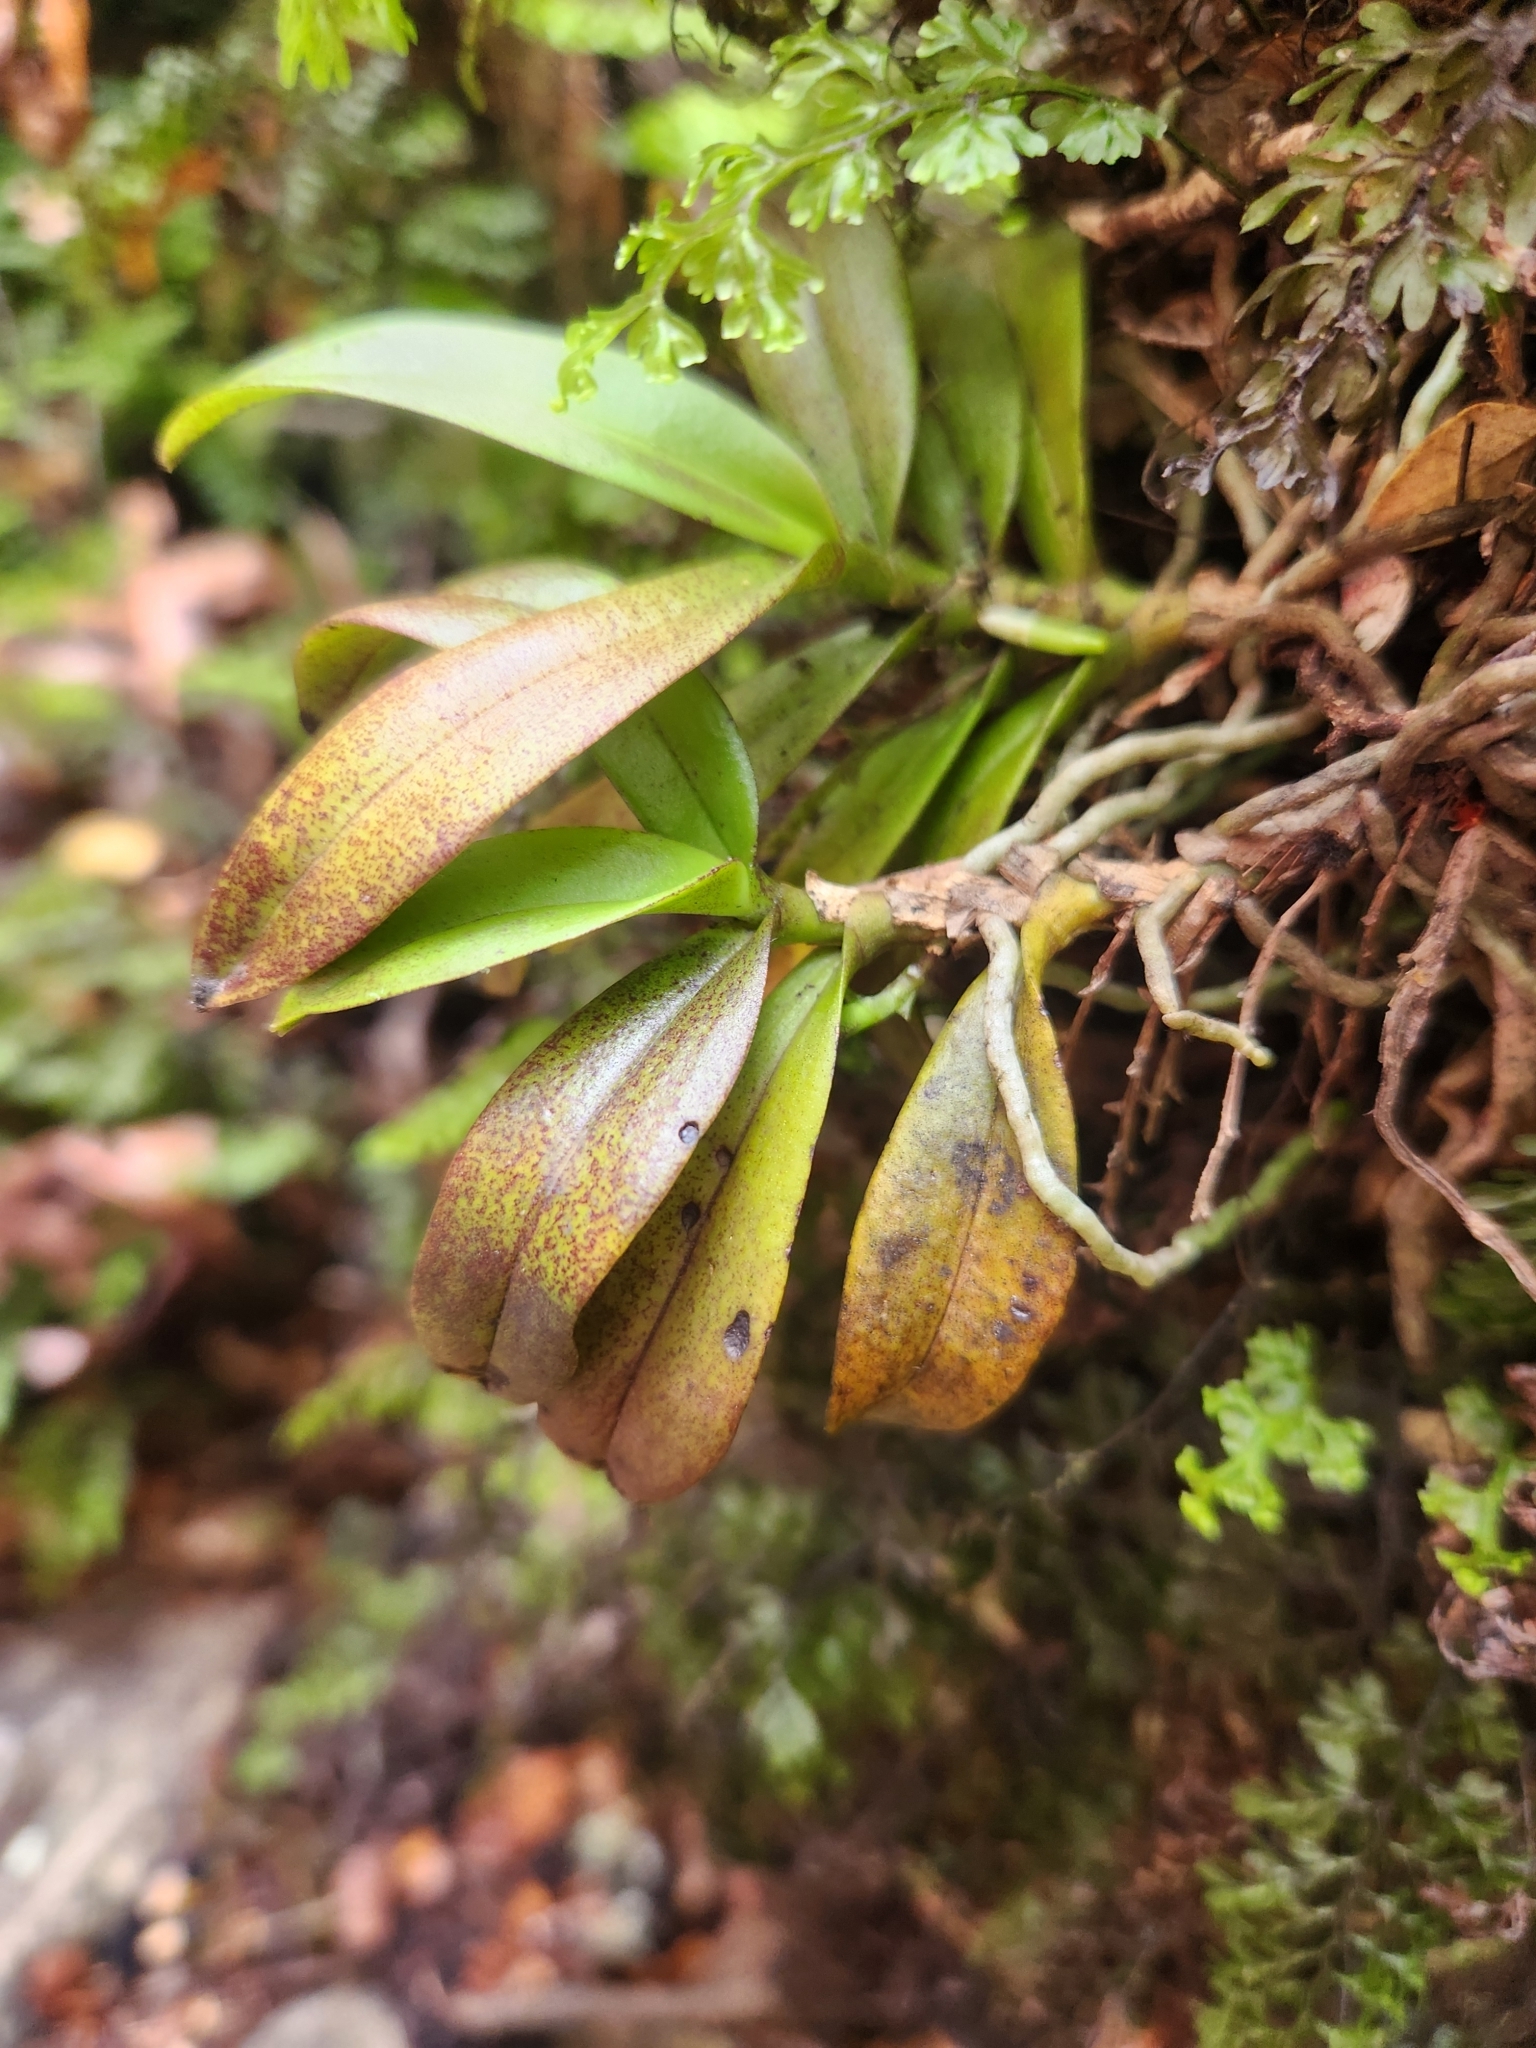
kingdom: Plantae
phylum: Tracheophyta
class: Liliopsida
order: Asparagales
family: Orchidaceae
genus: Drymoanthus
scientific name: Drymoanthus adversus
